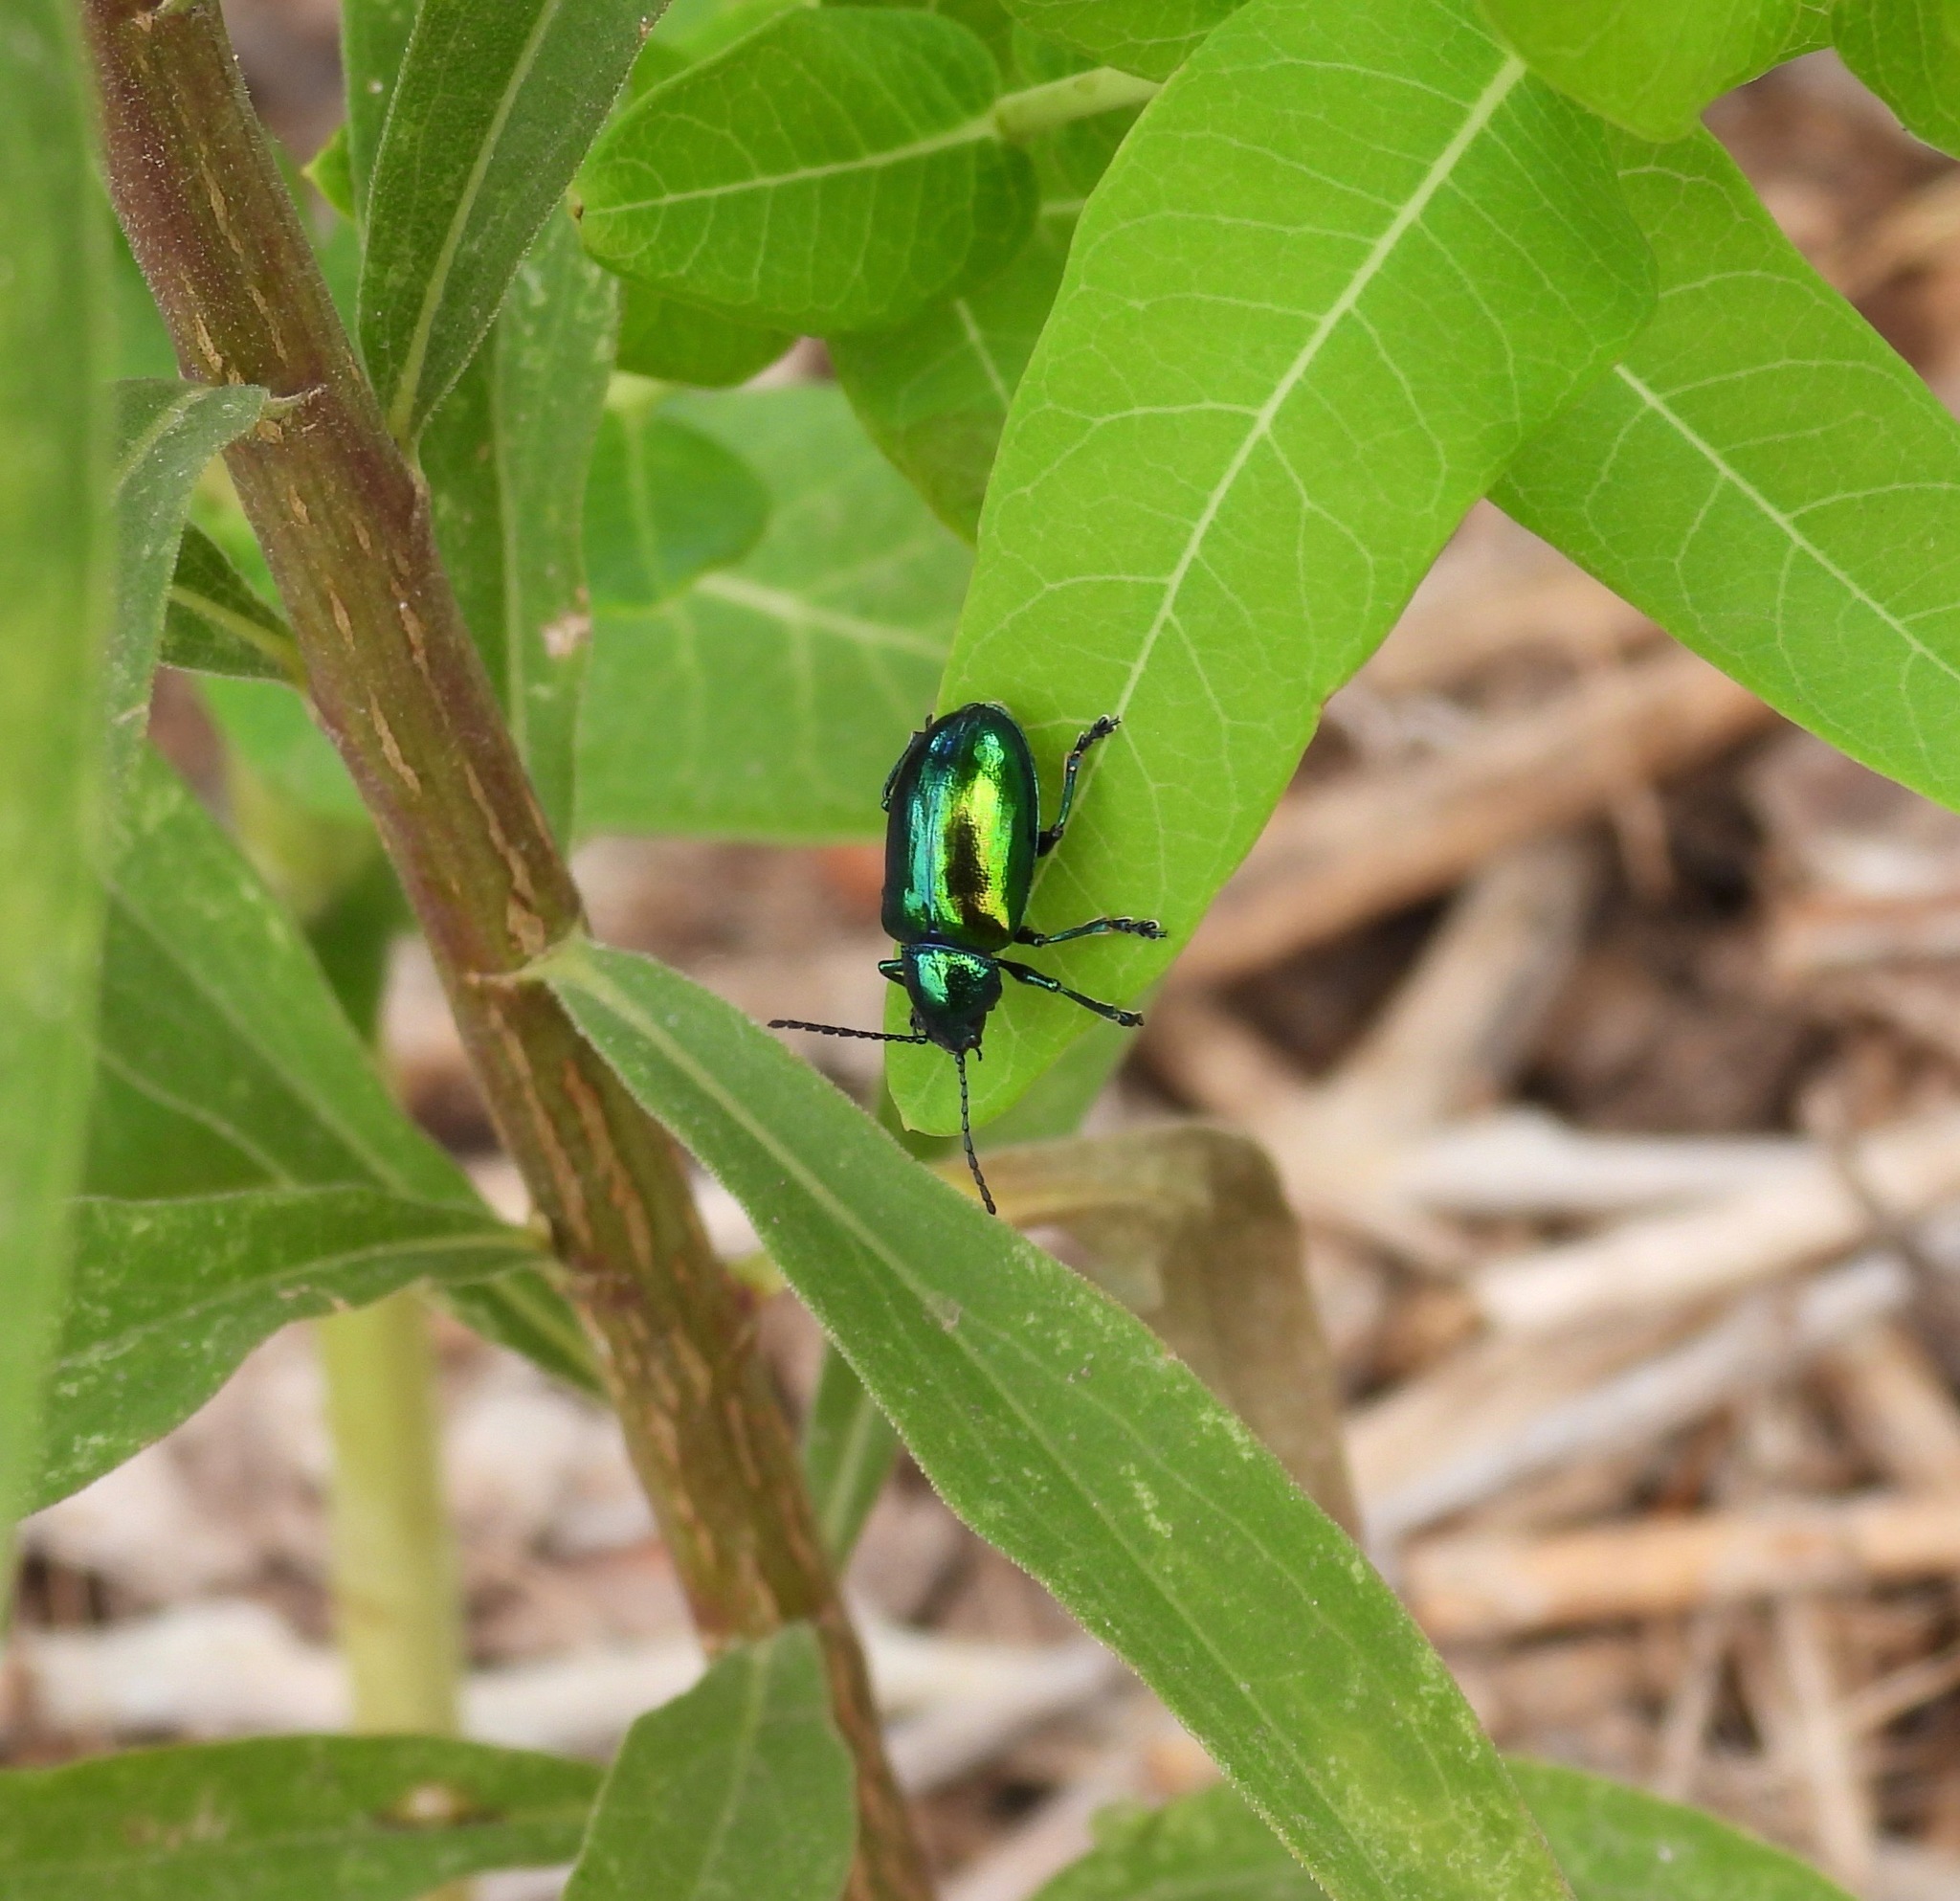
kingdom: Animalia
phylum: Arthropoda
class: Insecta
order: Coleoptera
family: Chrysomelidae
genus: Chrysochus
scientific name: Chrysochus auratus
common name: Dogbane leaf beetle
